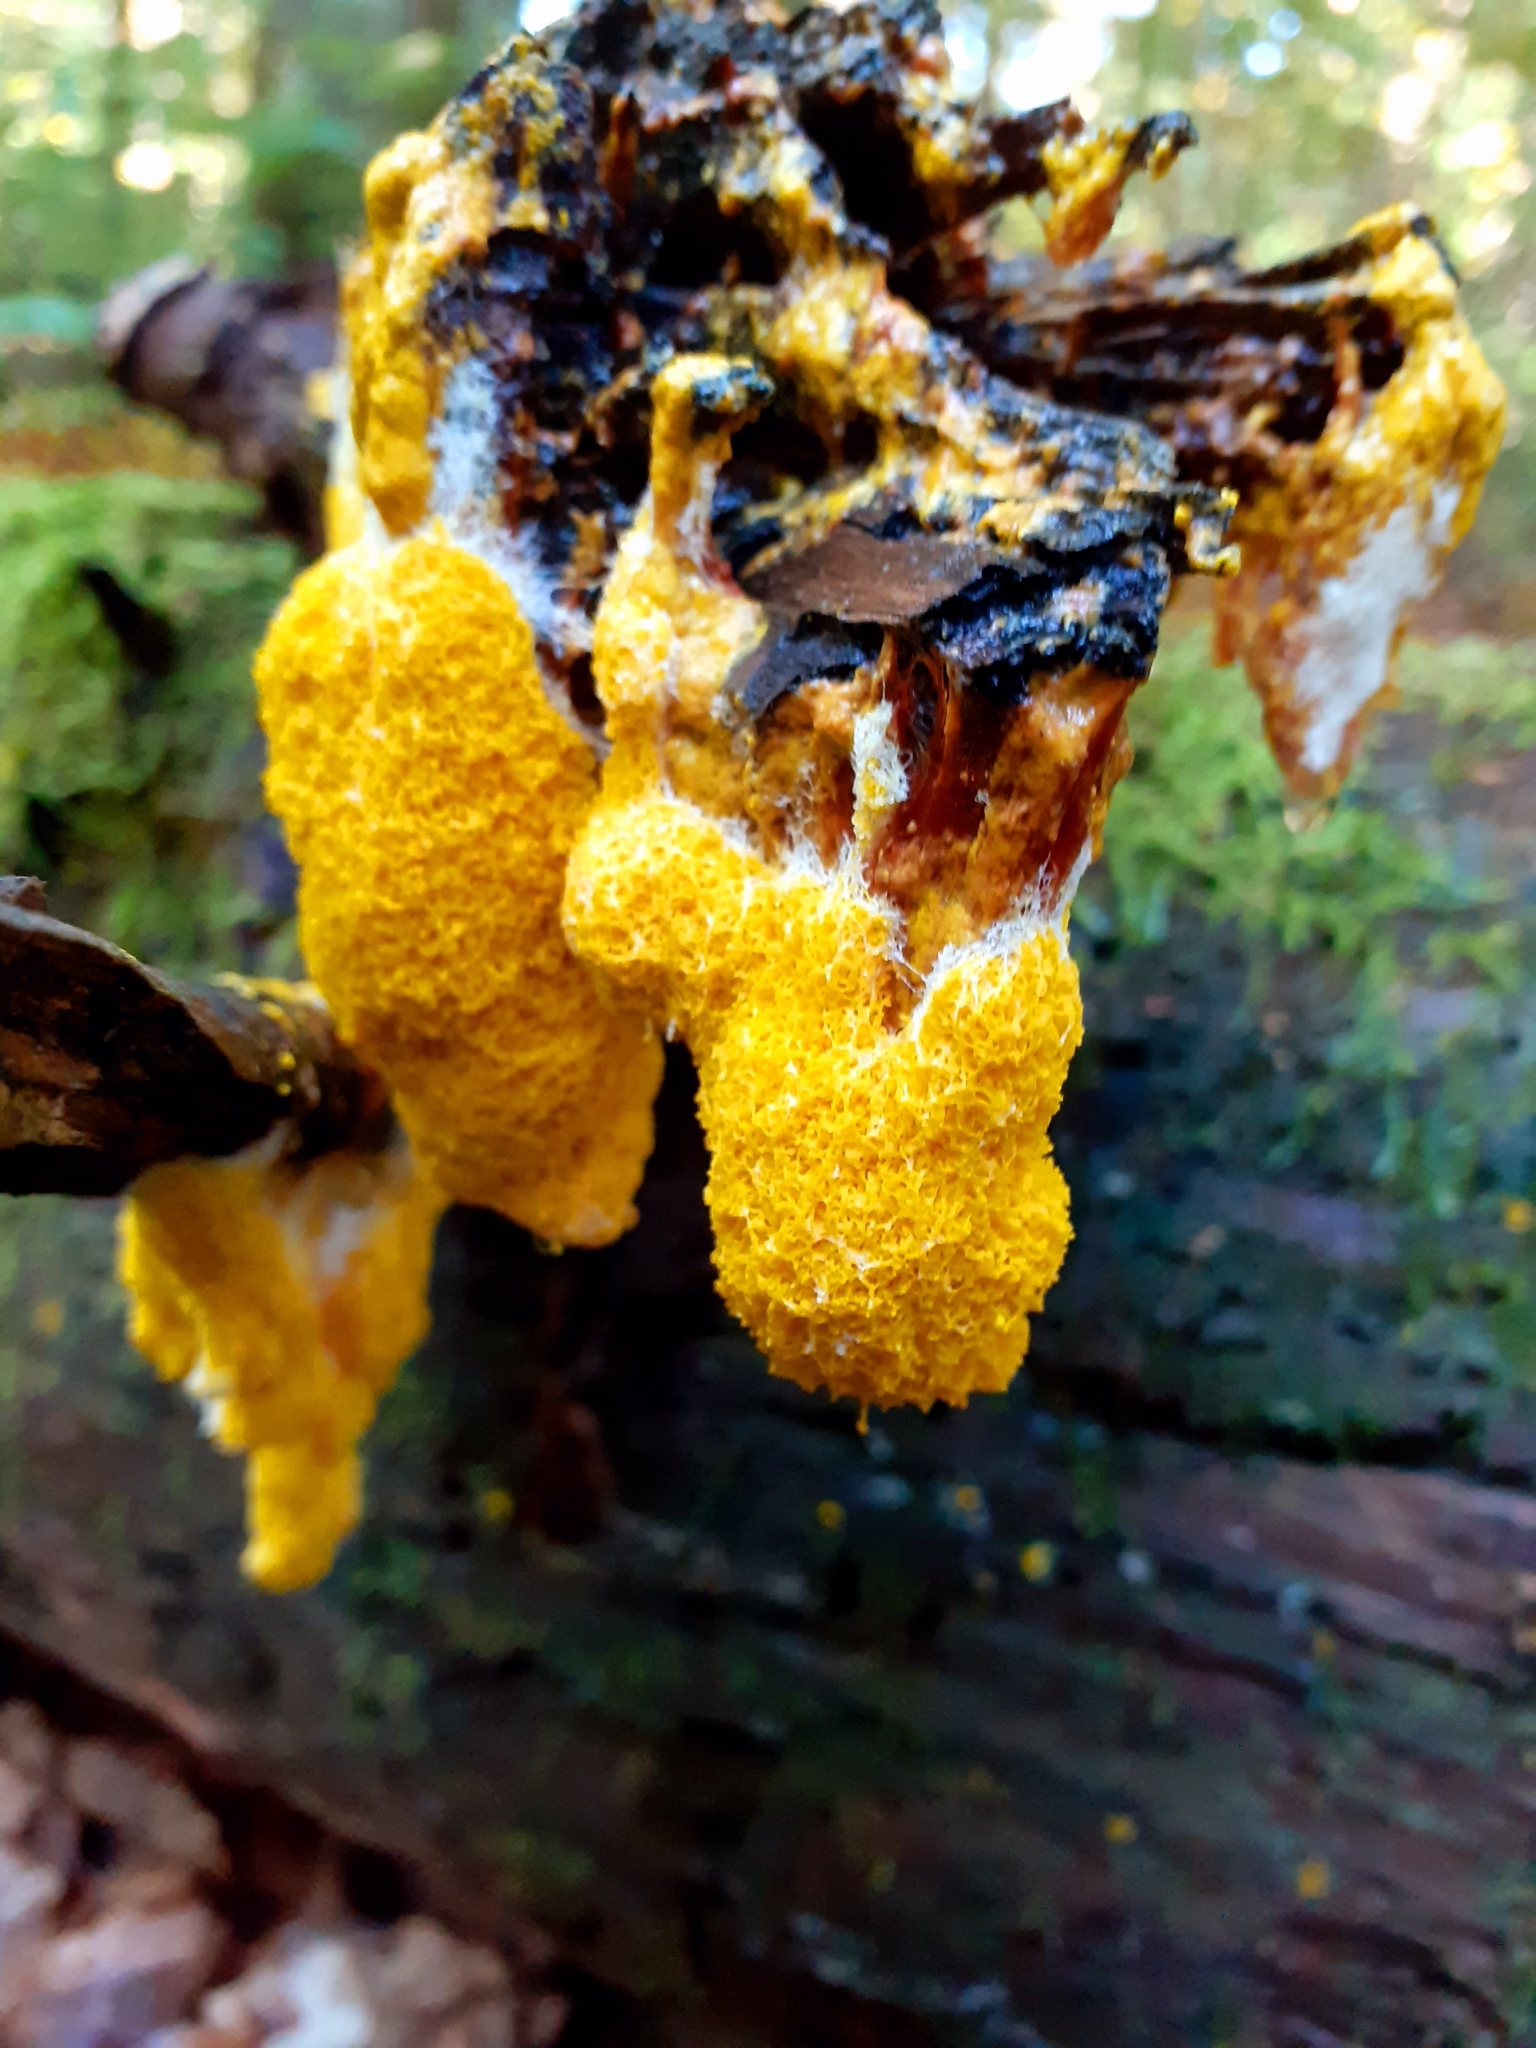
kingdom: Protozoa
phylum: Mycetozoa
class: Myxomycetes
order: Physarales
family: Physaraceae
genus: Fuligo
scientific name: Fuligo septica
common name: Dog vomit slime mold
